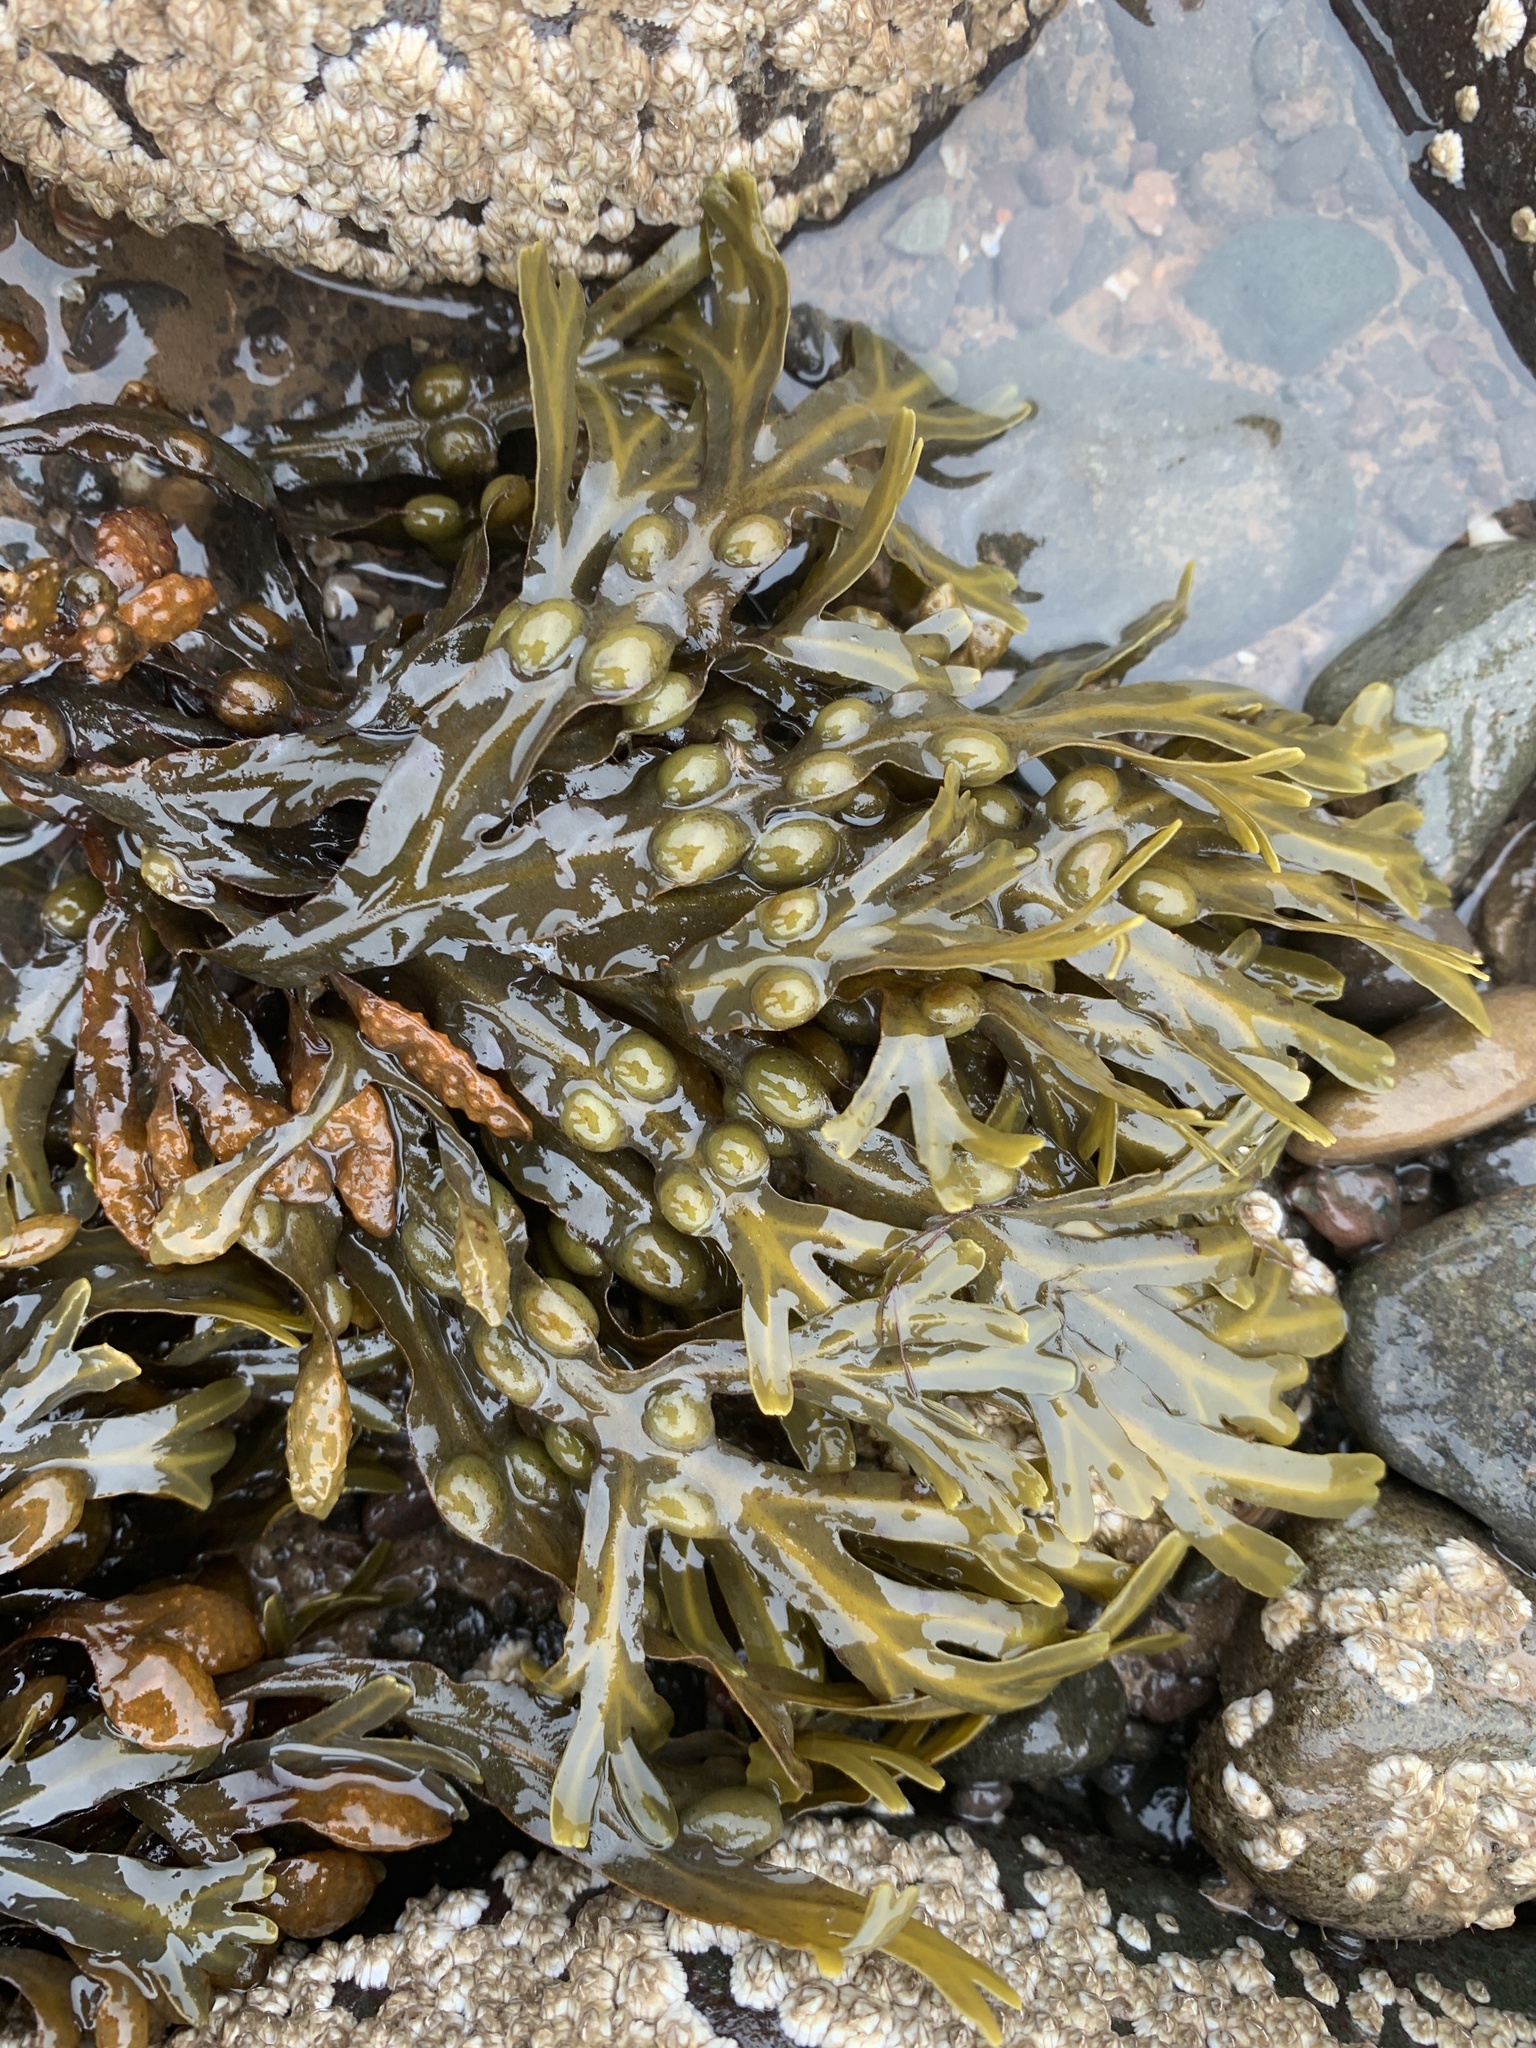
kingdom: Chromista
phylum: Ochrophyta
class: Phaeophyceae
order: Fucales
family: Fucaceae
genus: Fucus
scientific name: Fucus vesiculosus
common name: Bladder wrack
